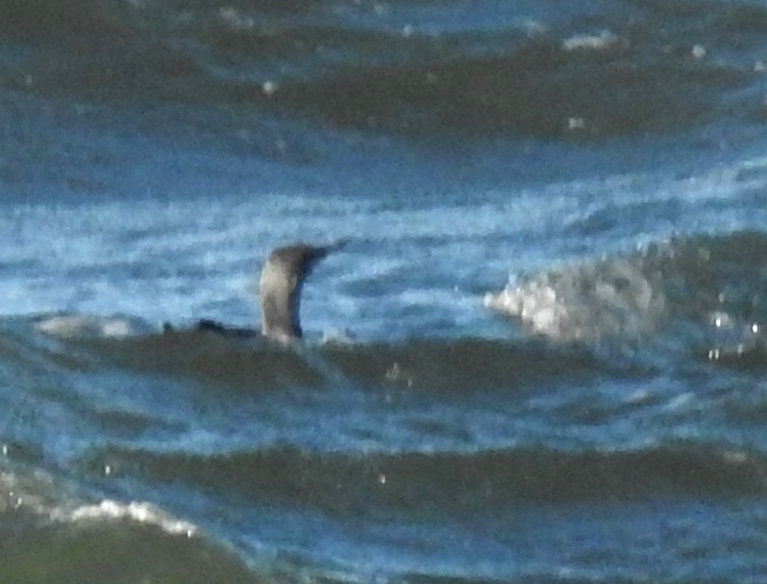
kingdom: Animalia
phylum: Chordata
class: Aves
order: Gaviiformes
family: Gaviidae
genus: Gavia
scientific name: Gavia stellata
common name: Red-throated loon
